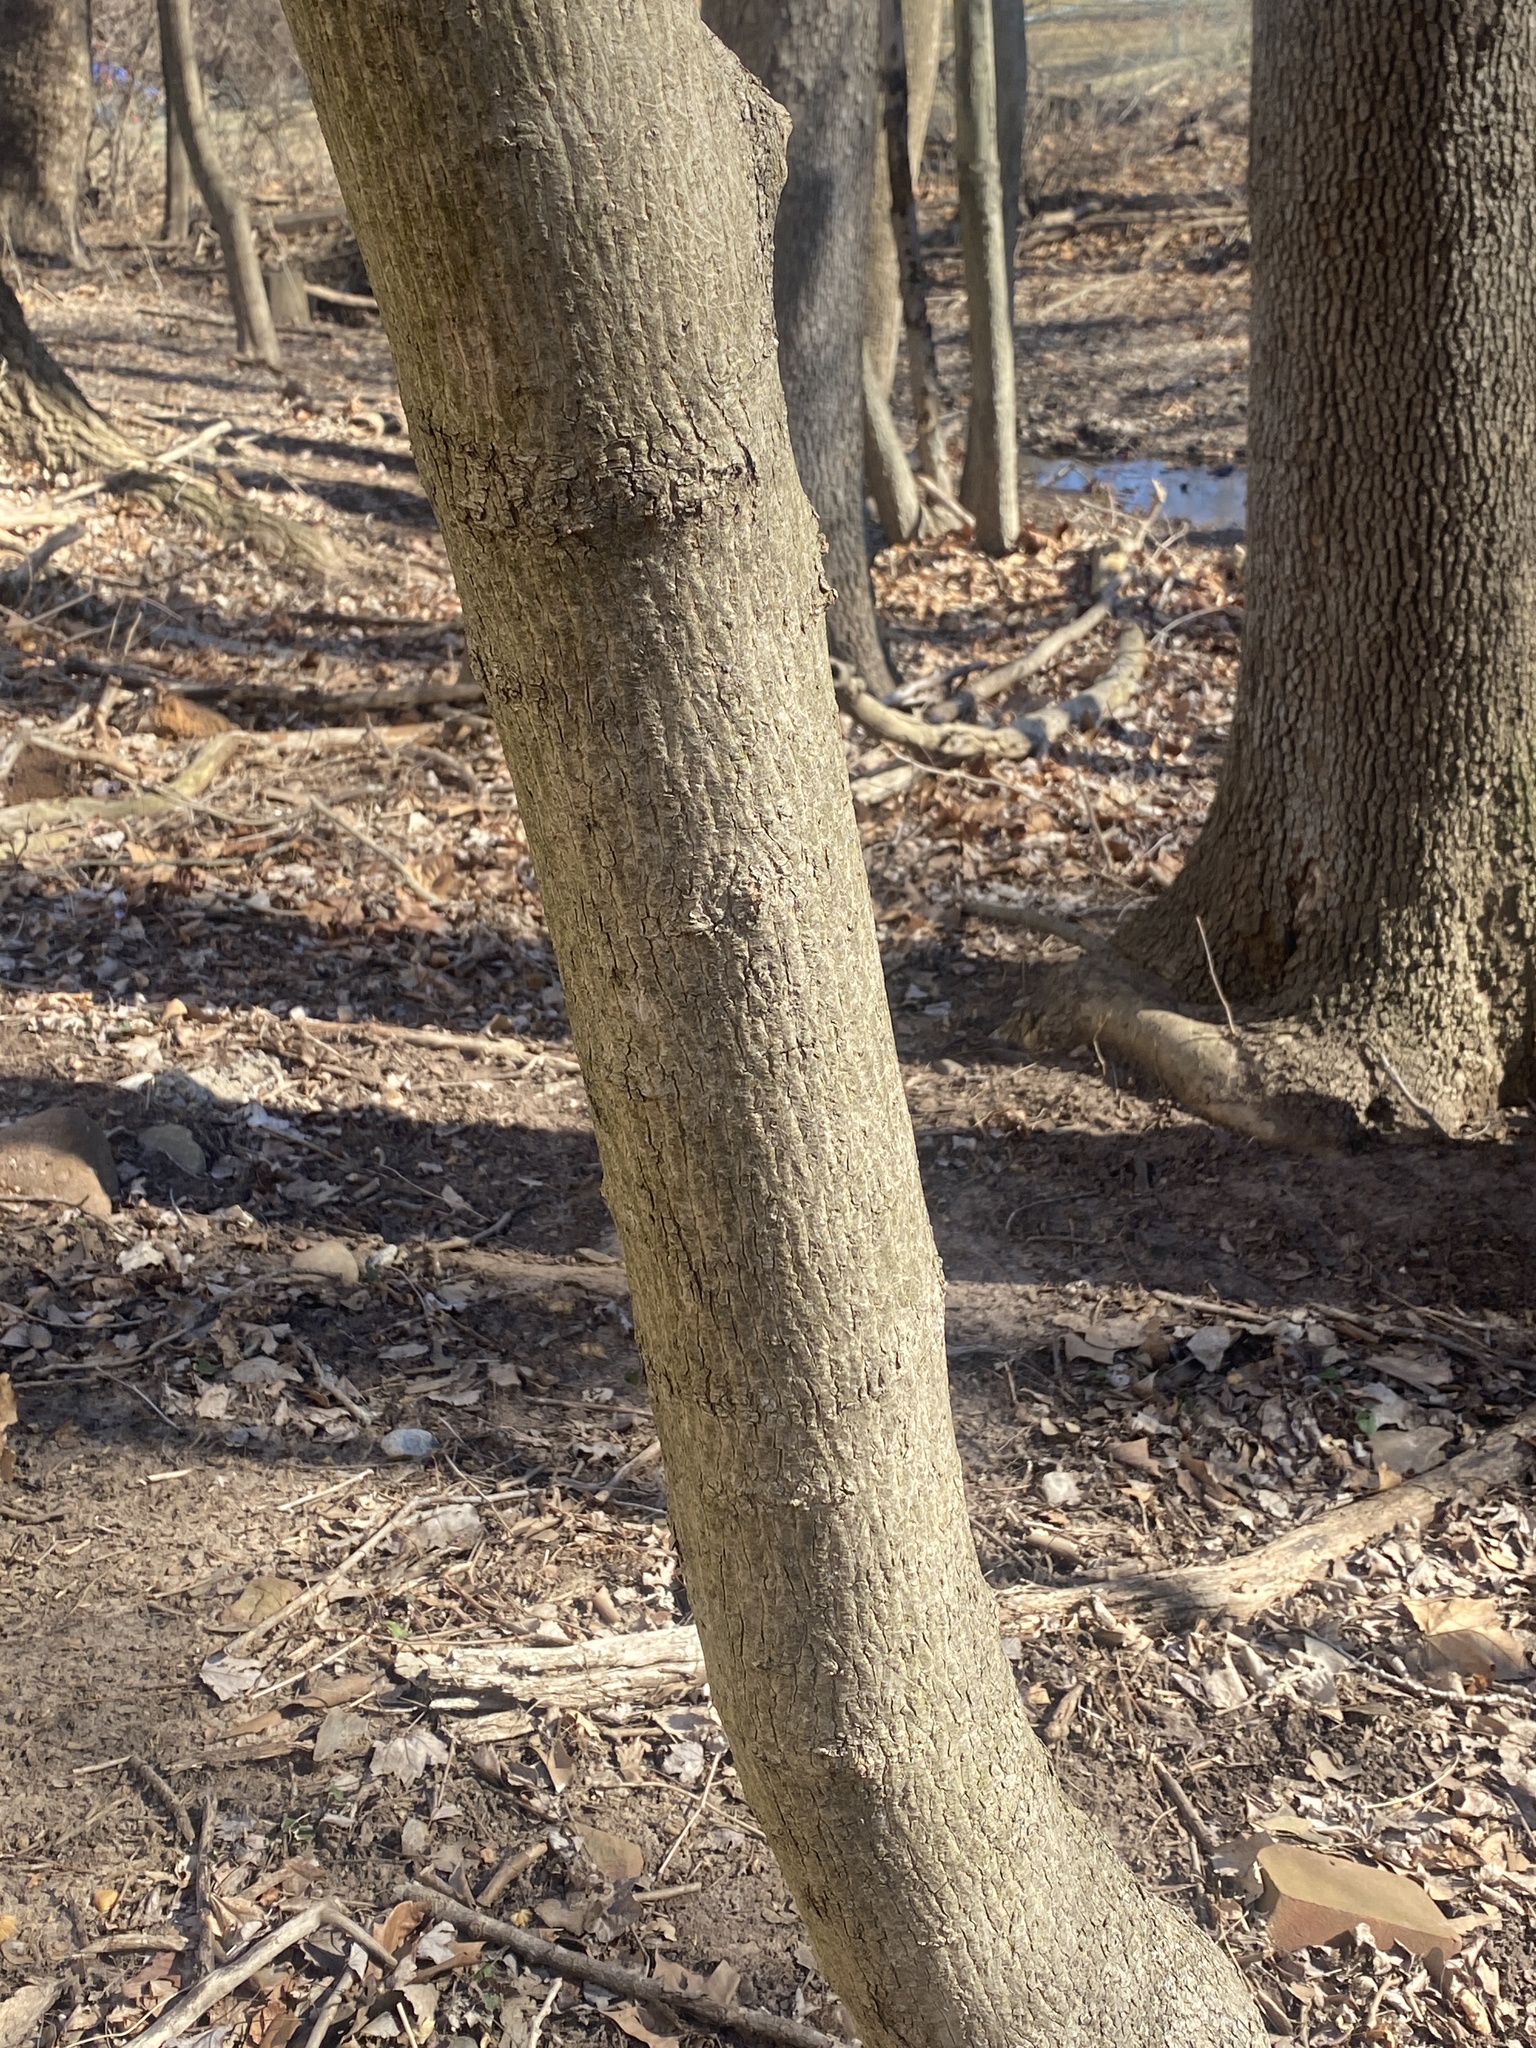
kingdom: Plantae
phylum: Tracheophyta
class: Magnoliopsida
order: Sapindales
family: Sapindaceae
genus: Acer
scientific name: Acer platanoides
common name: Norway maple
